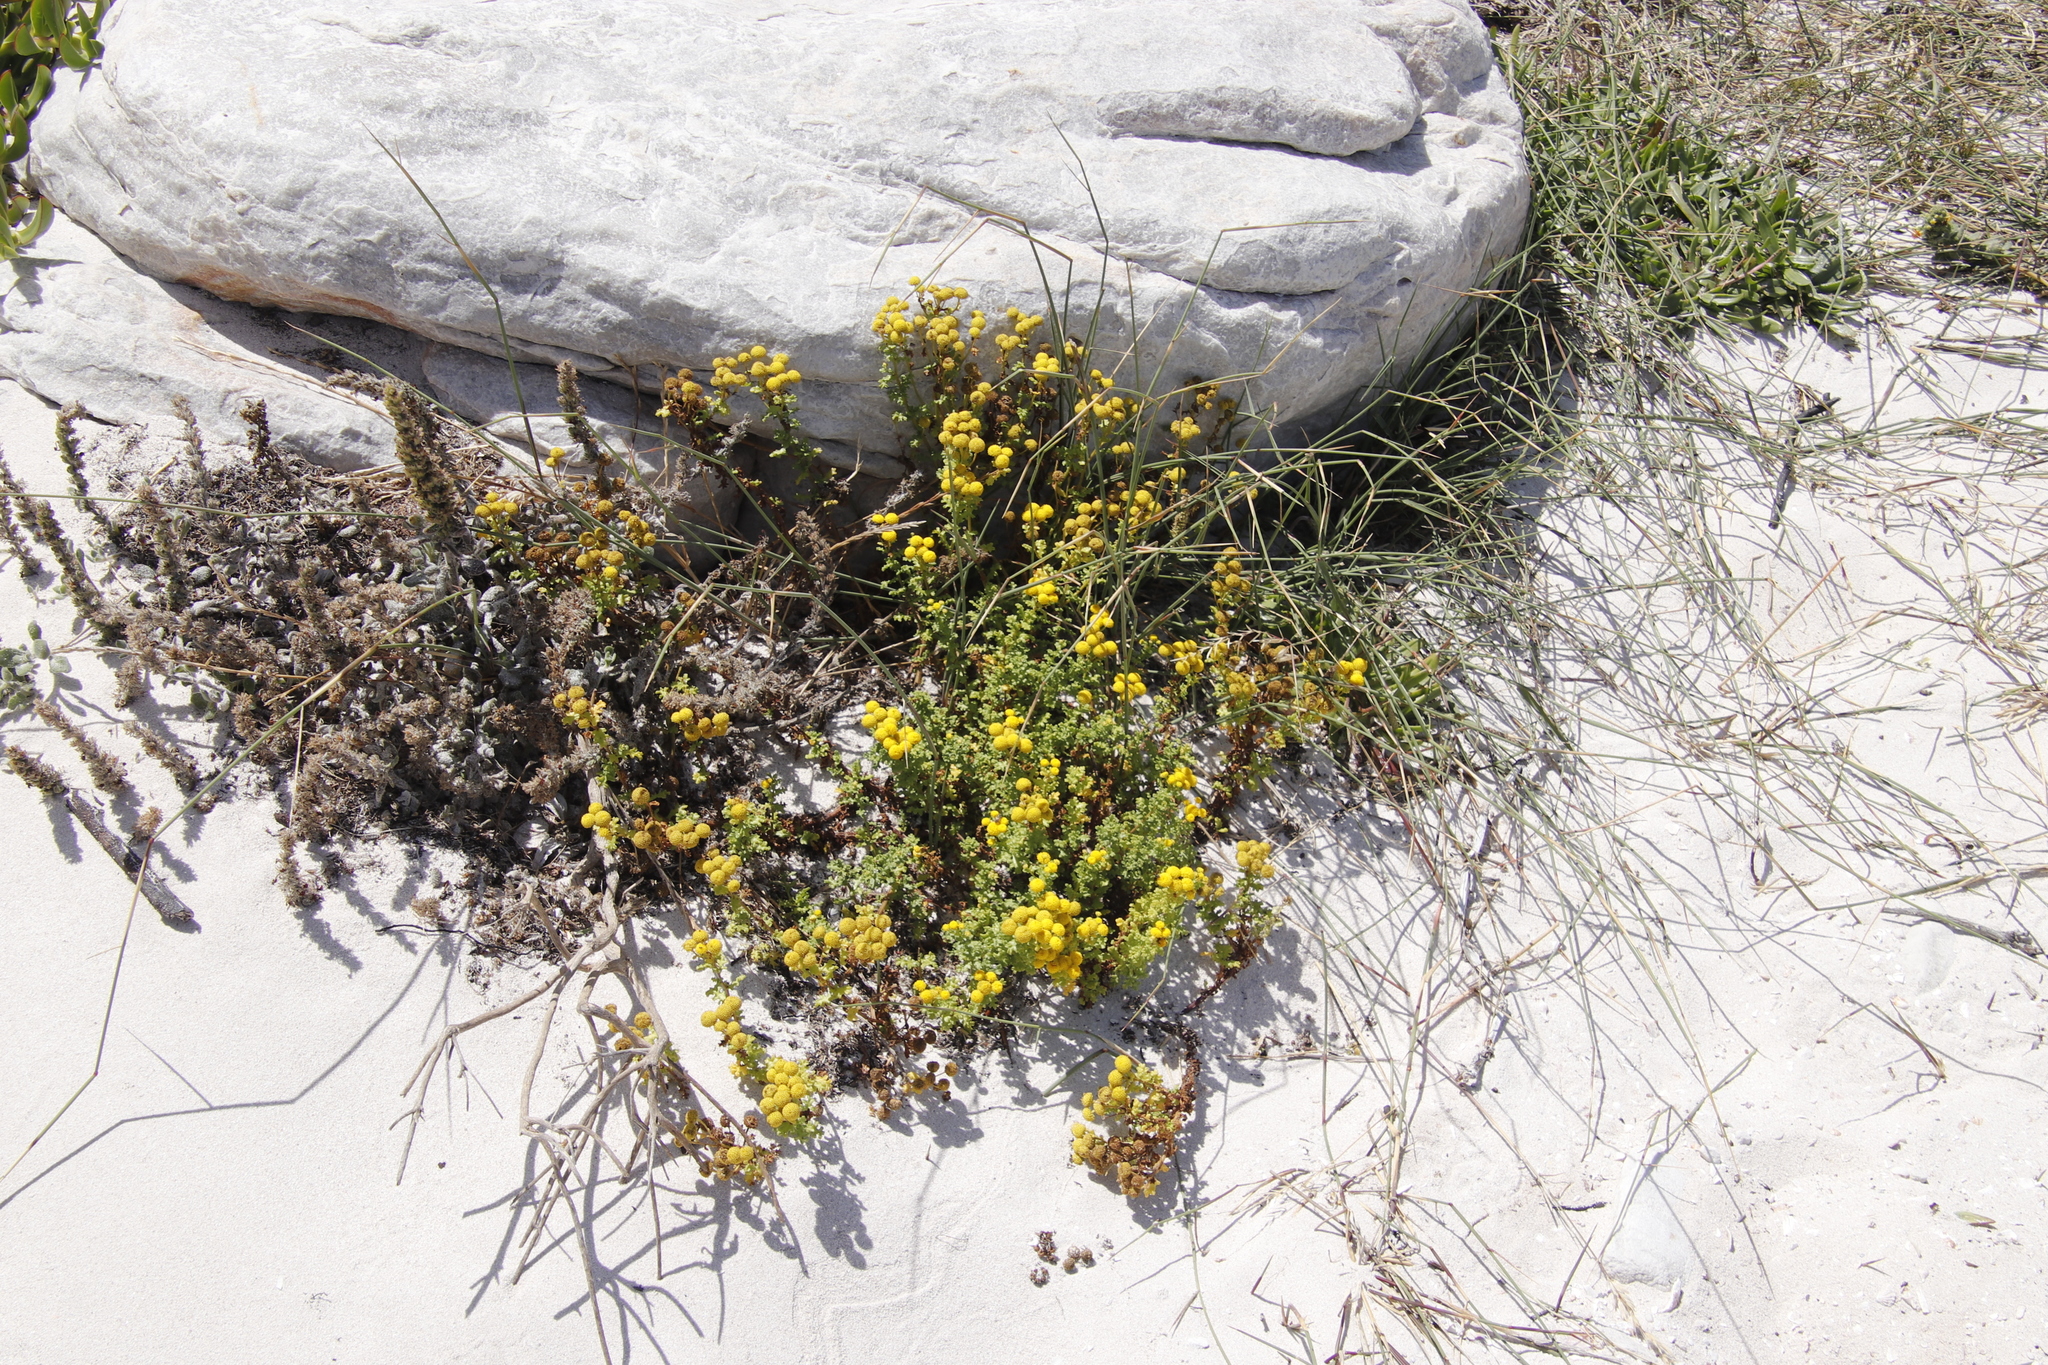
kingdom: Plantae
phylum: Tracheophyta
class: Magnoliopsida
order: Asterales
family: Asteraceae
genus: Oncosiphon
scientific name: Oncosiphon sabulosus
